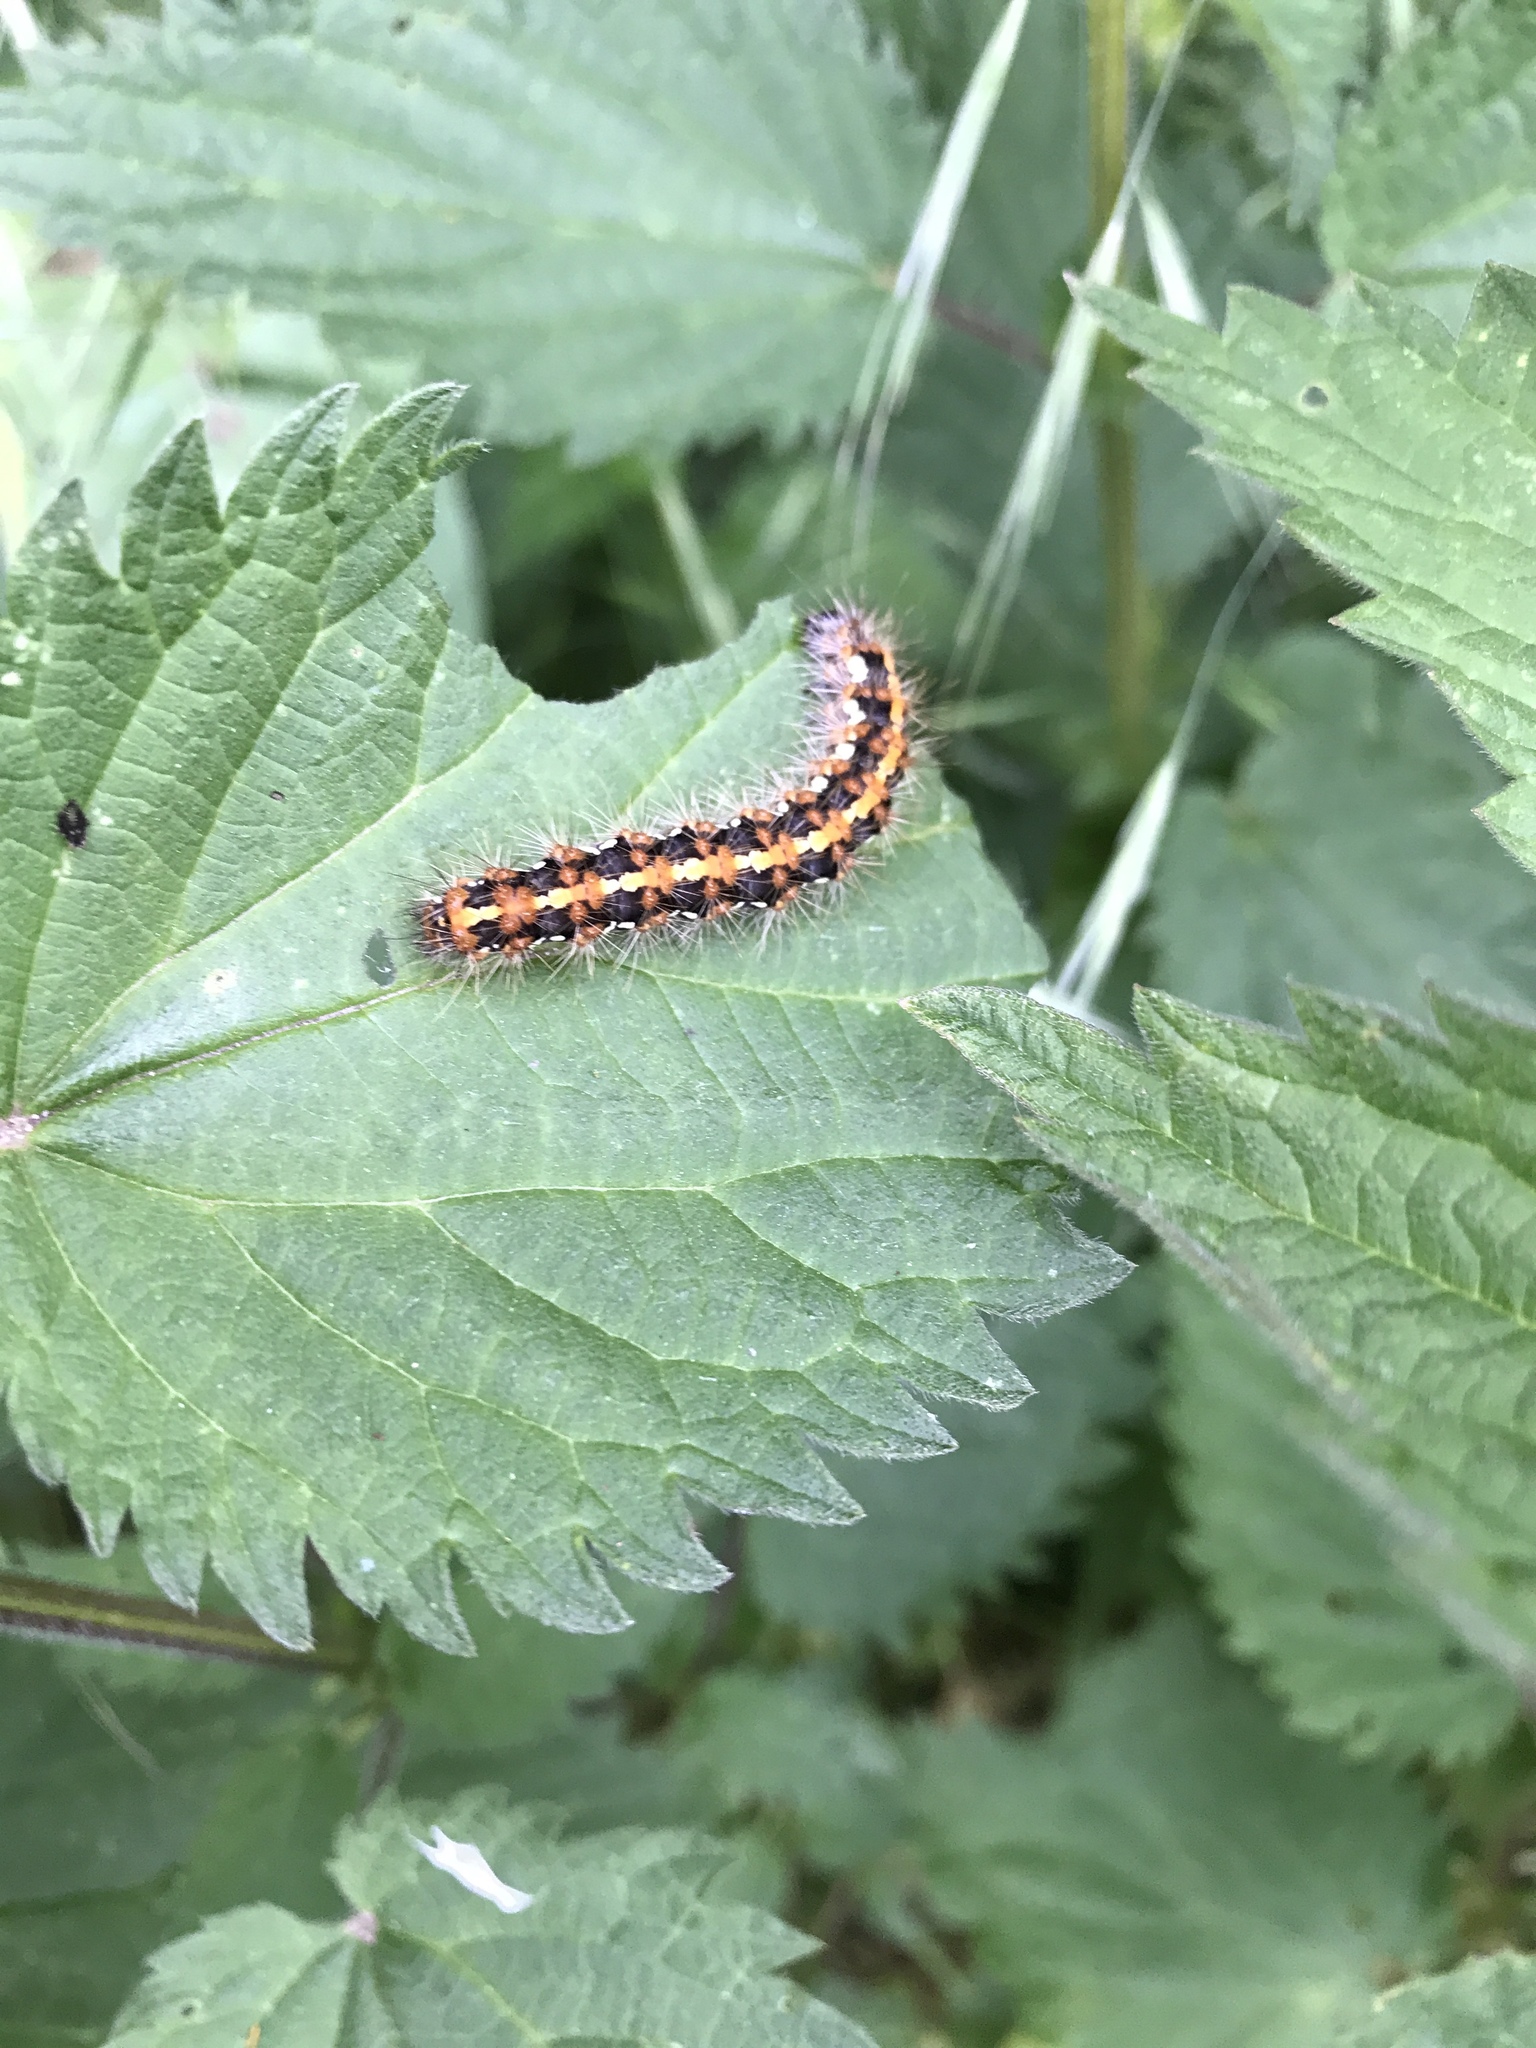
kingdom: Animalia
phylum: Arthropoda
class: Insecta
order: Lepidoptera
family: Erebidae
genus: Euplagia
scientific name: Euplagia quadripunctaria
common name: Jersey tiger
